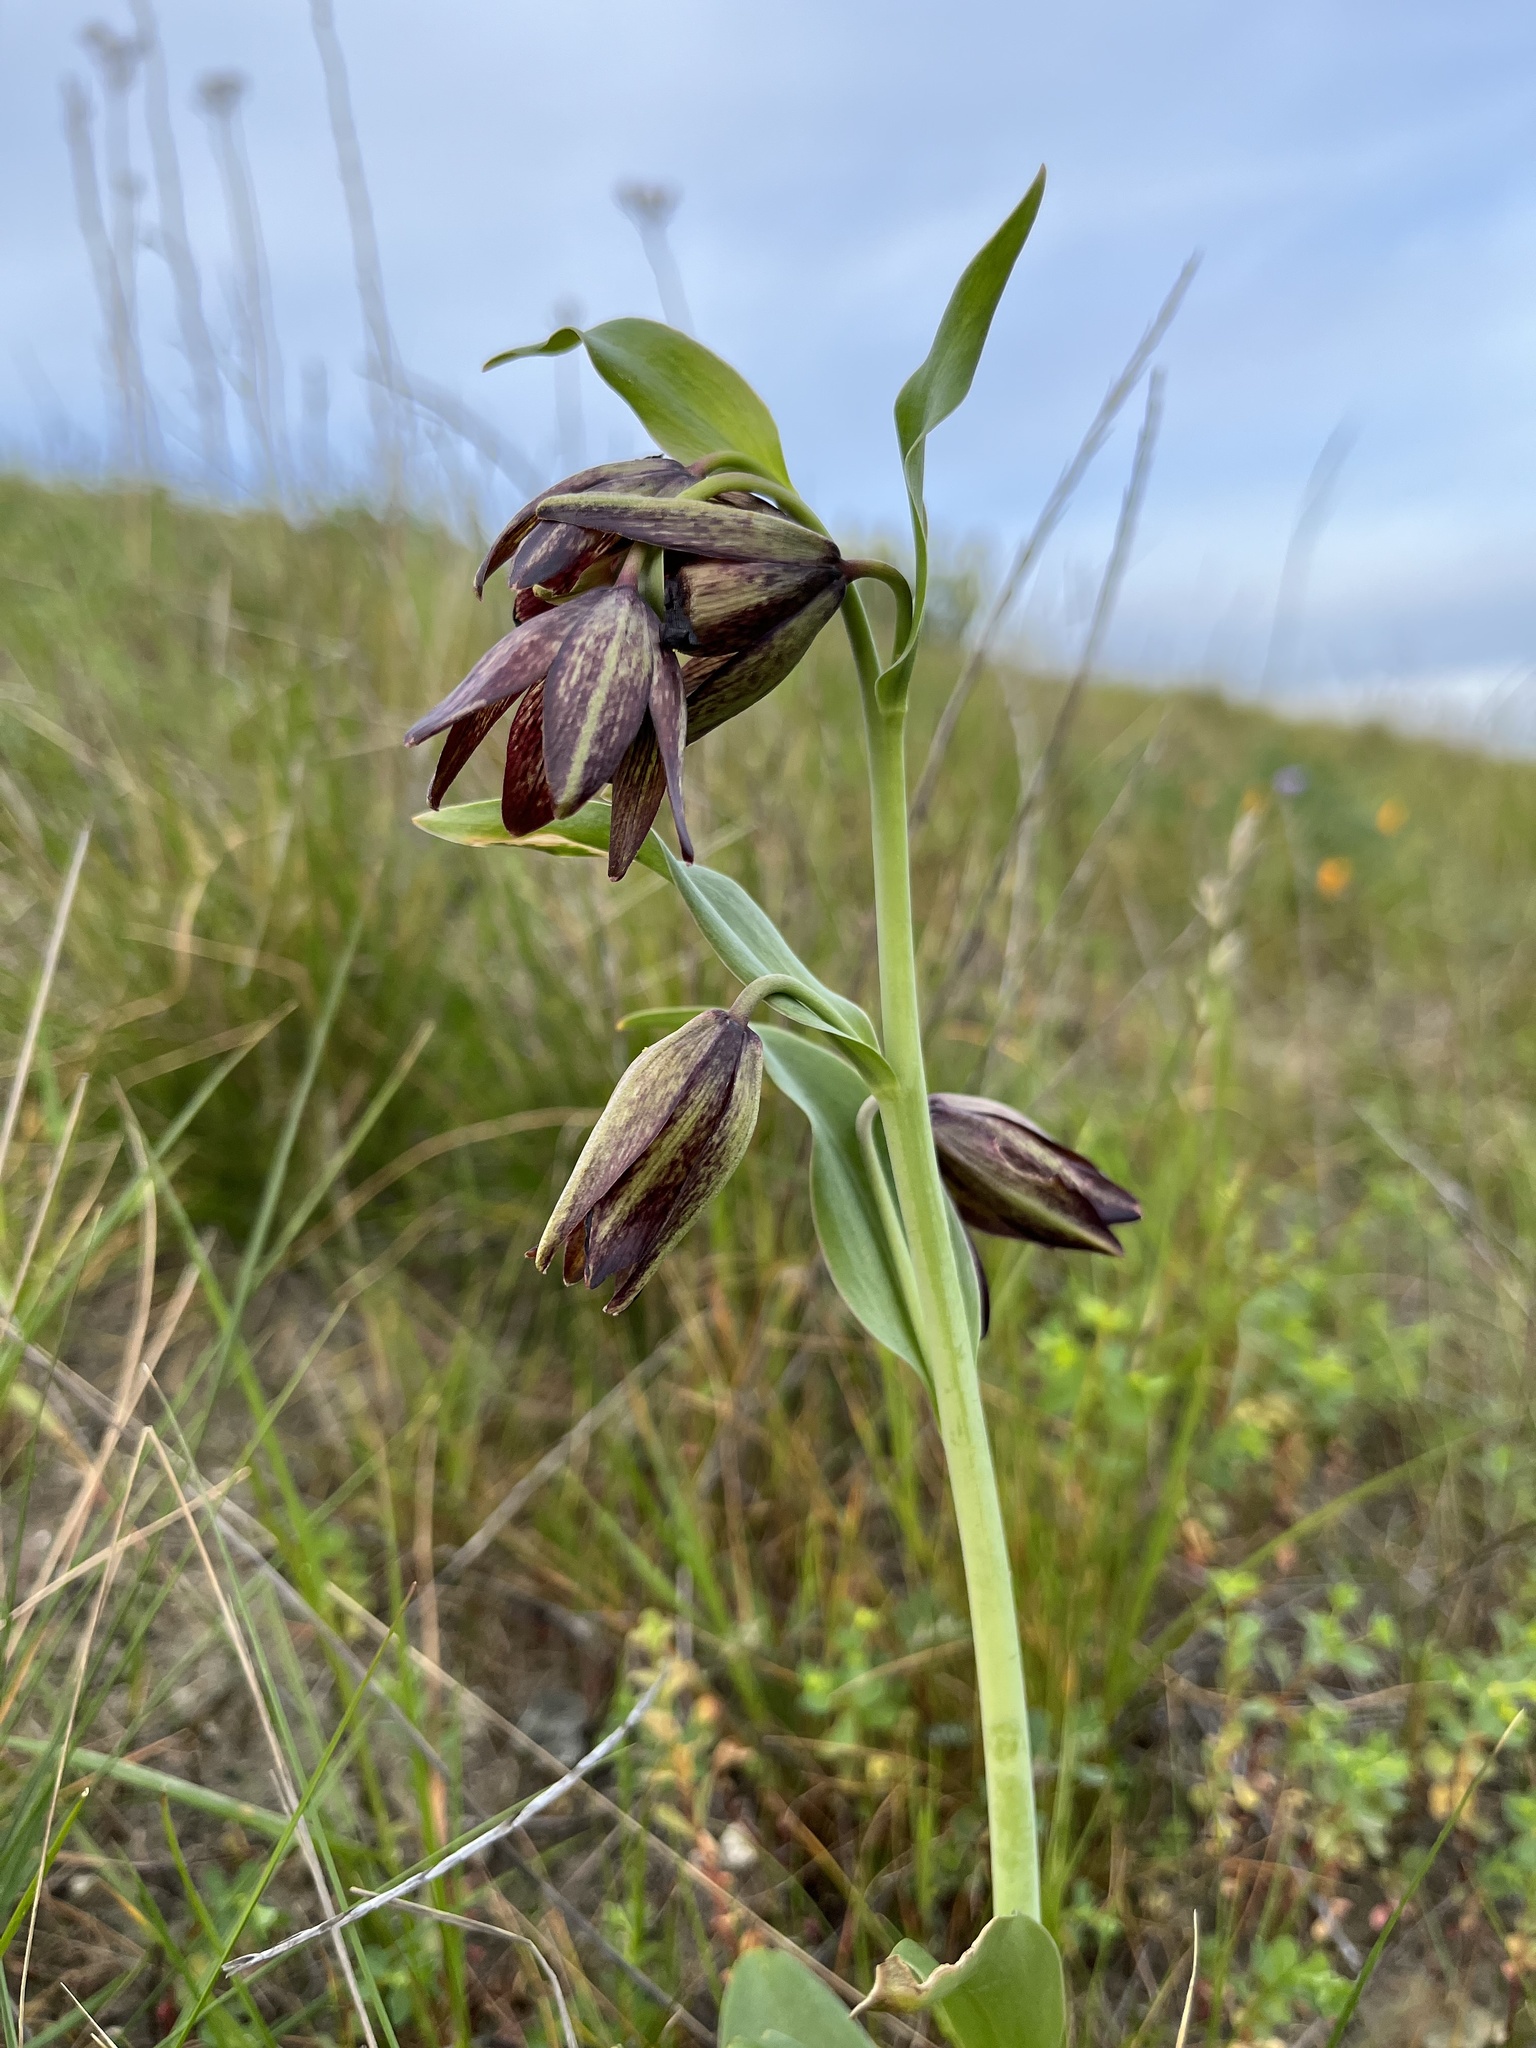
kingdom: Plantae
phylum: Tracheophyta
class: Liliopsida
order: Liliales
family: Liliaceae
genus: Fritillaria
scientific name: Fritillaria biflora
